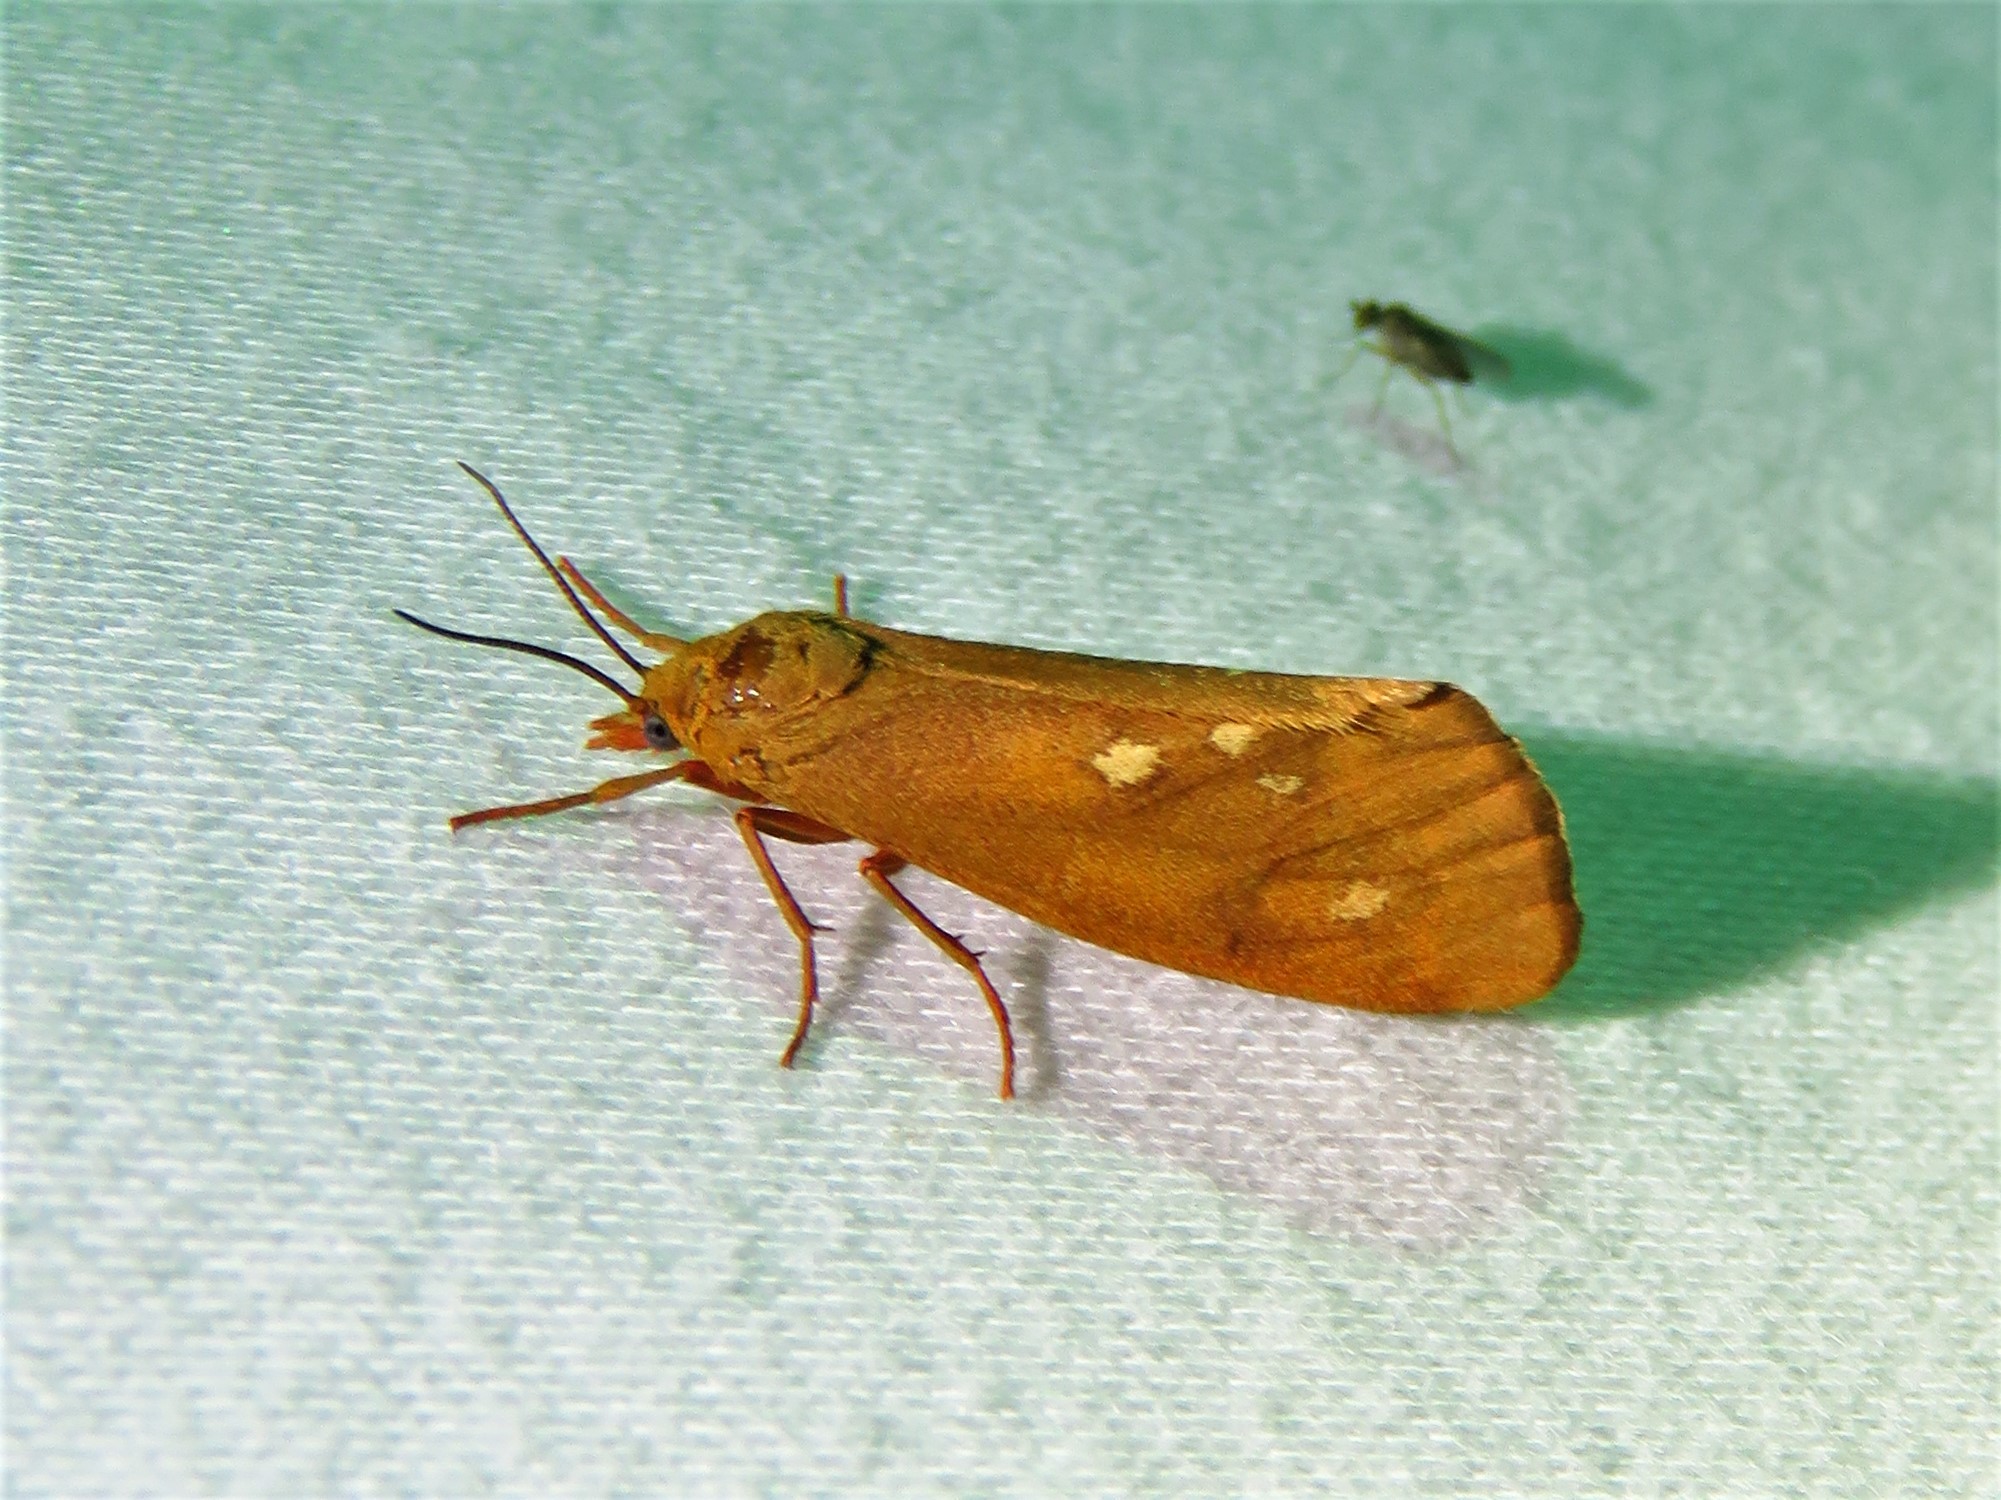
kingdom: Animalia
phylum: Arthropoda
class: Insecta
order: Lepidoptera
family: Erebidae
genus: Virbia
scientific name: Virbia aurantiaca
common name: Orange virbia moth
